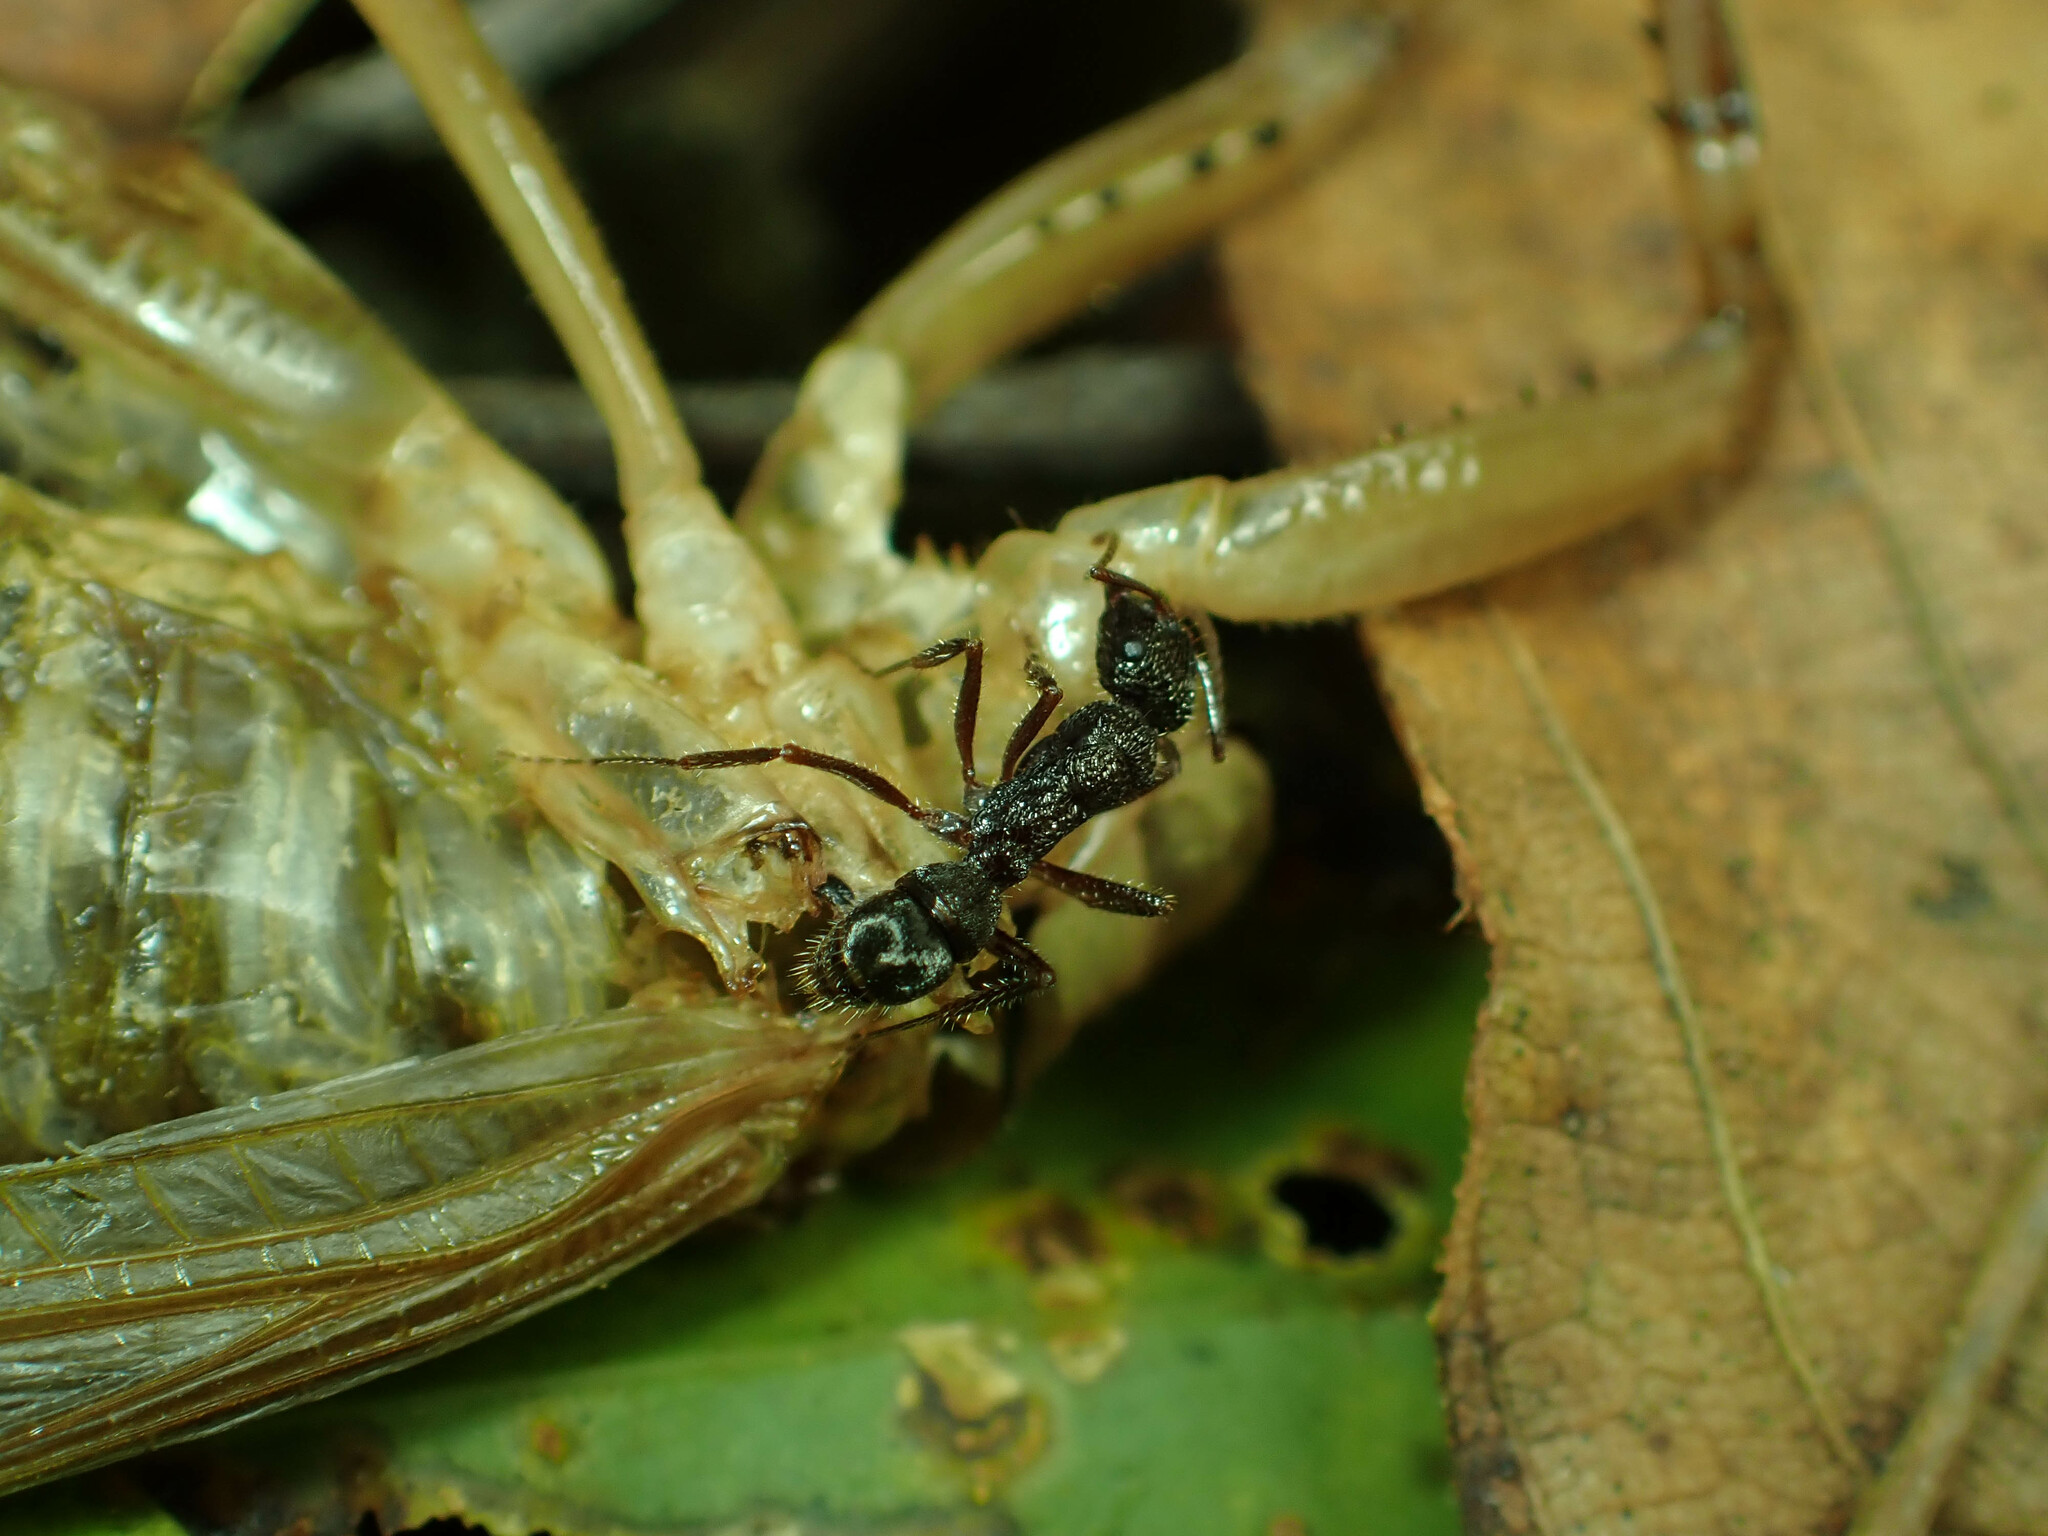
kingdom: Animalia
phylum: Arthropoda
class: Insecta
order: Hymenoptera
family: Formicidae
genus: Ectatomma
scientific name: Ectatomma ruidum
